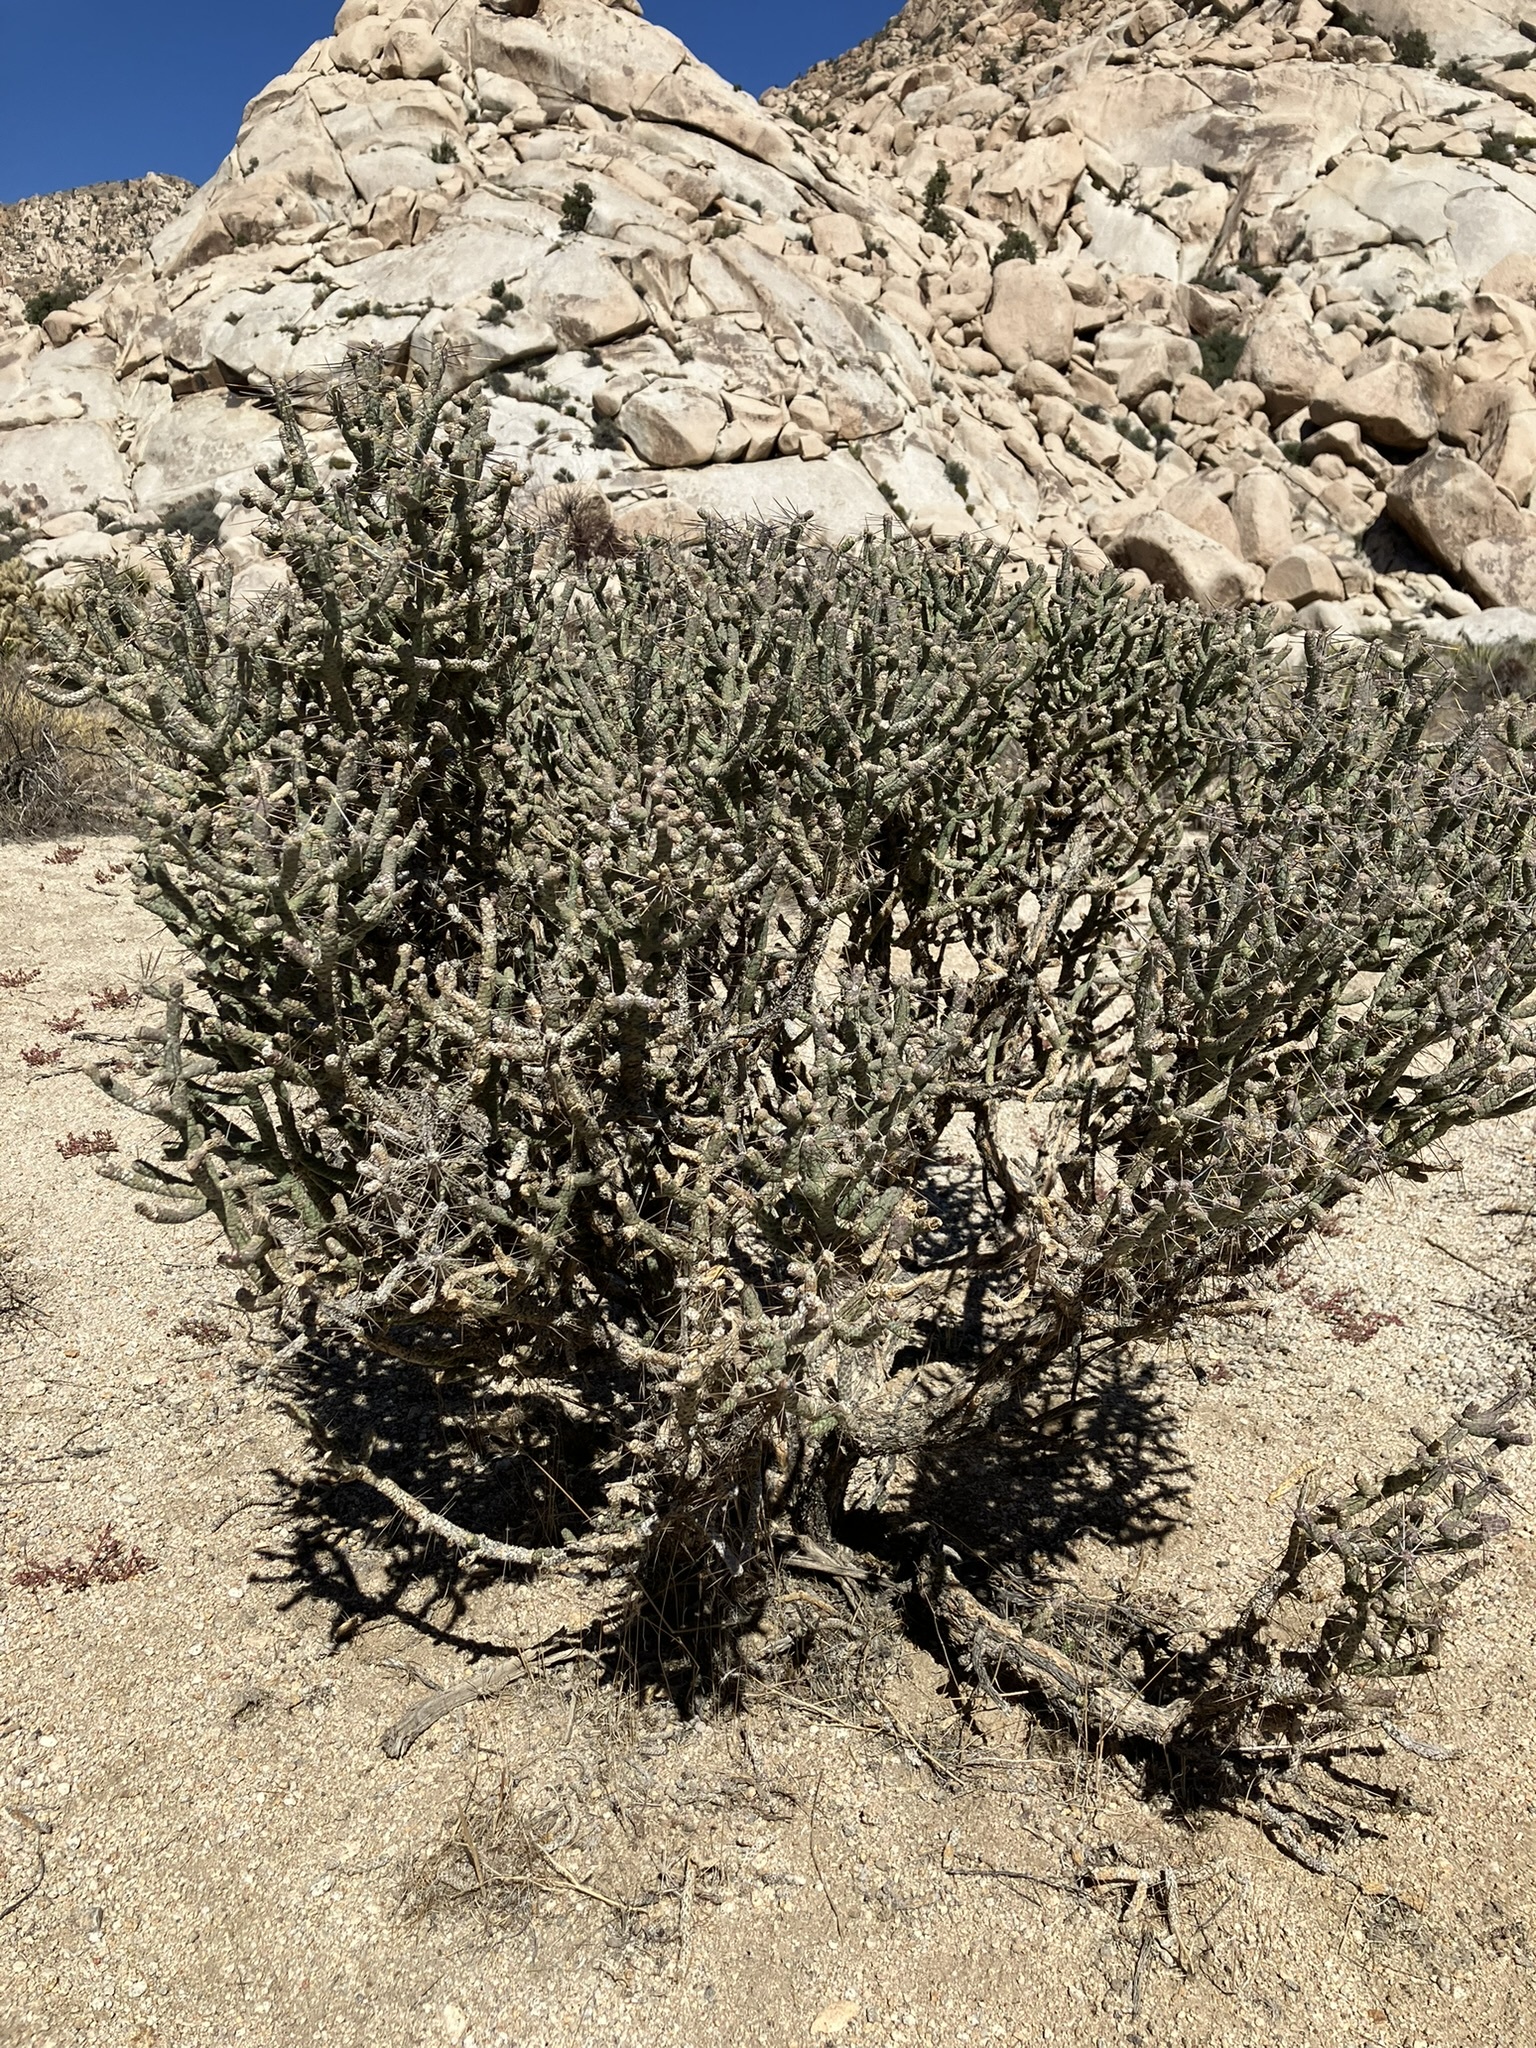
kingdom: Plantae
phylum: Tracheophyta
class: Magnoliopsida
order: Caryophyllales
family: Cactaceae
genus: Cylindropuntia
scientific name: Cylindropuntia ramosissima
